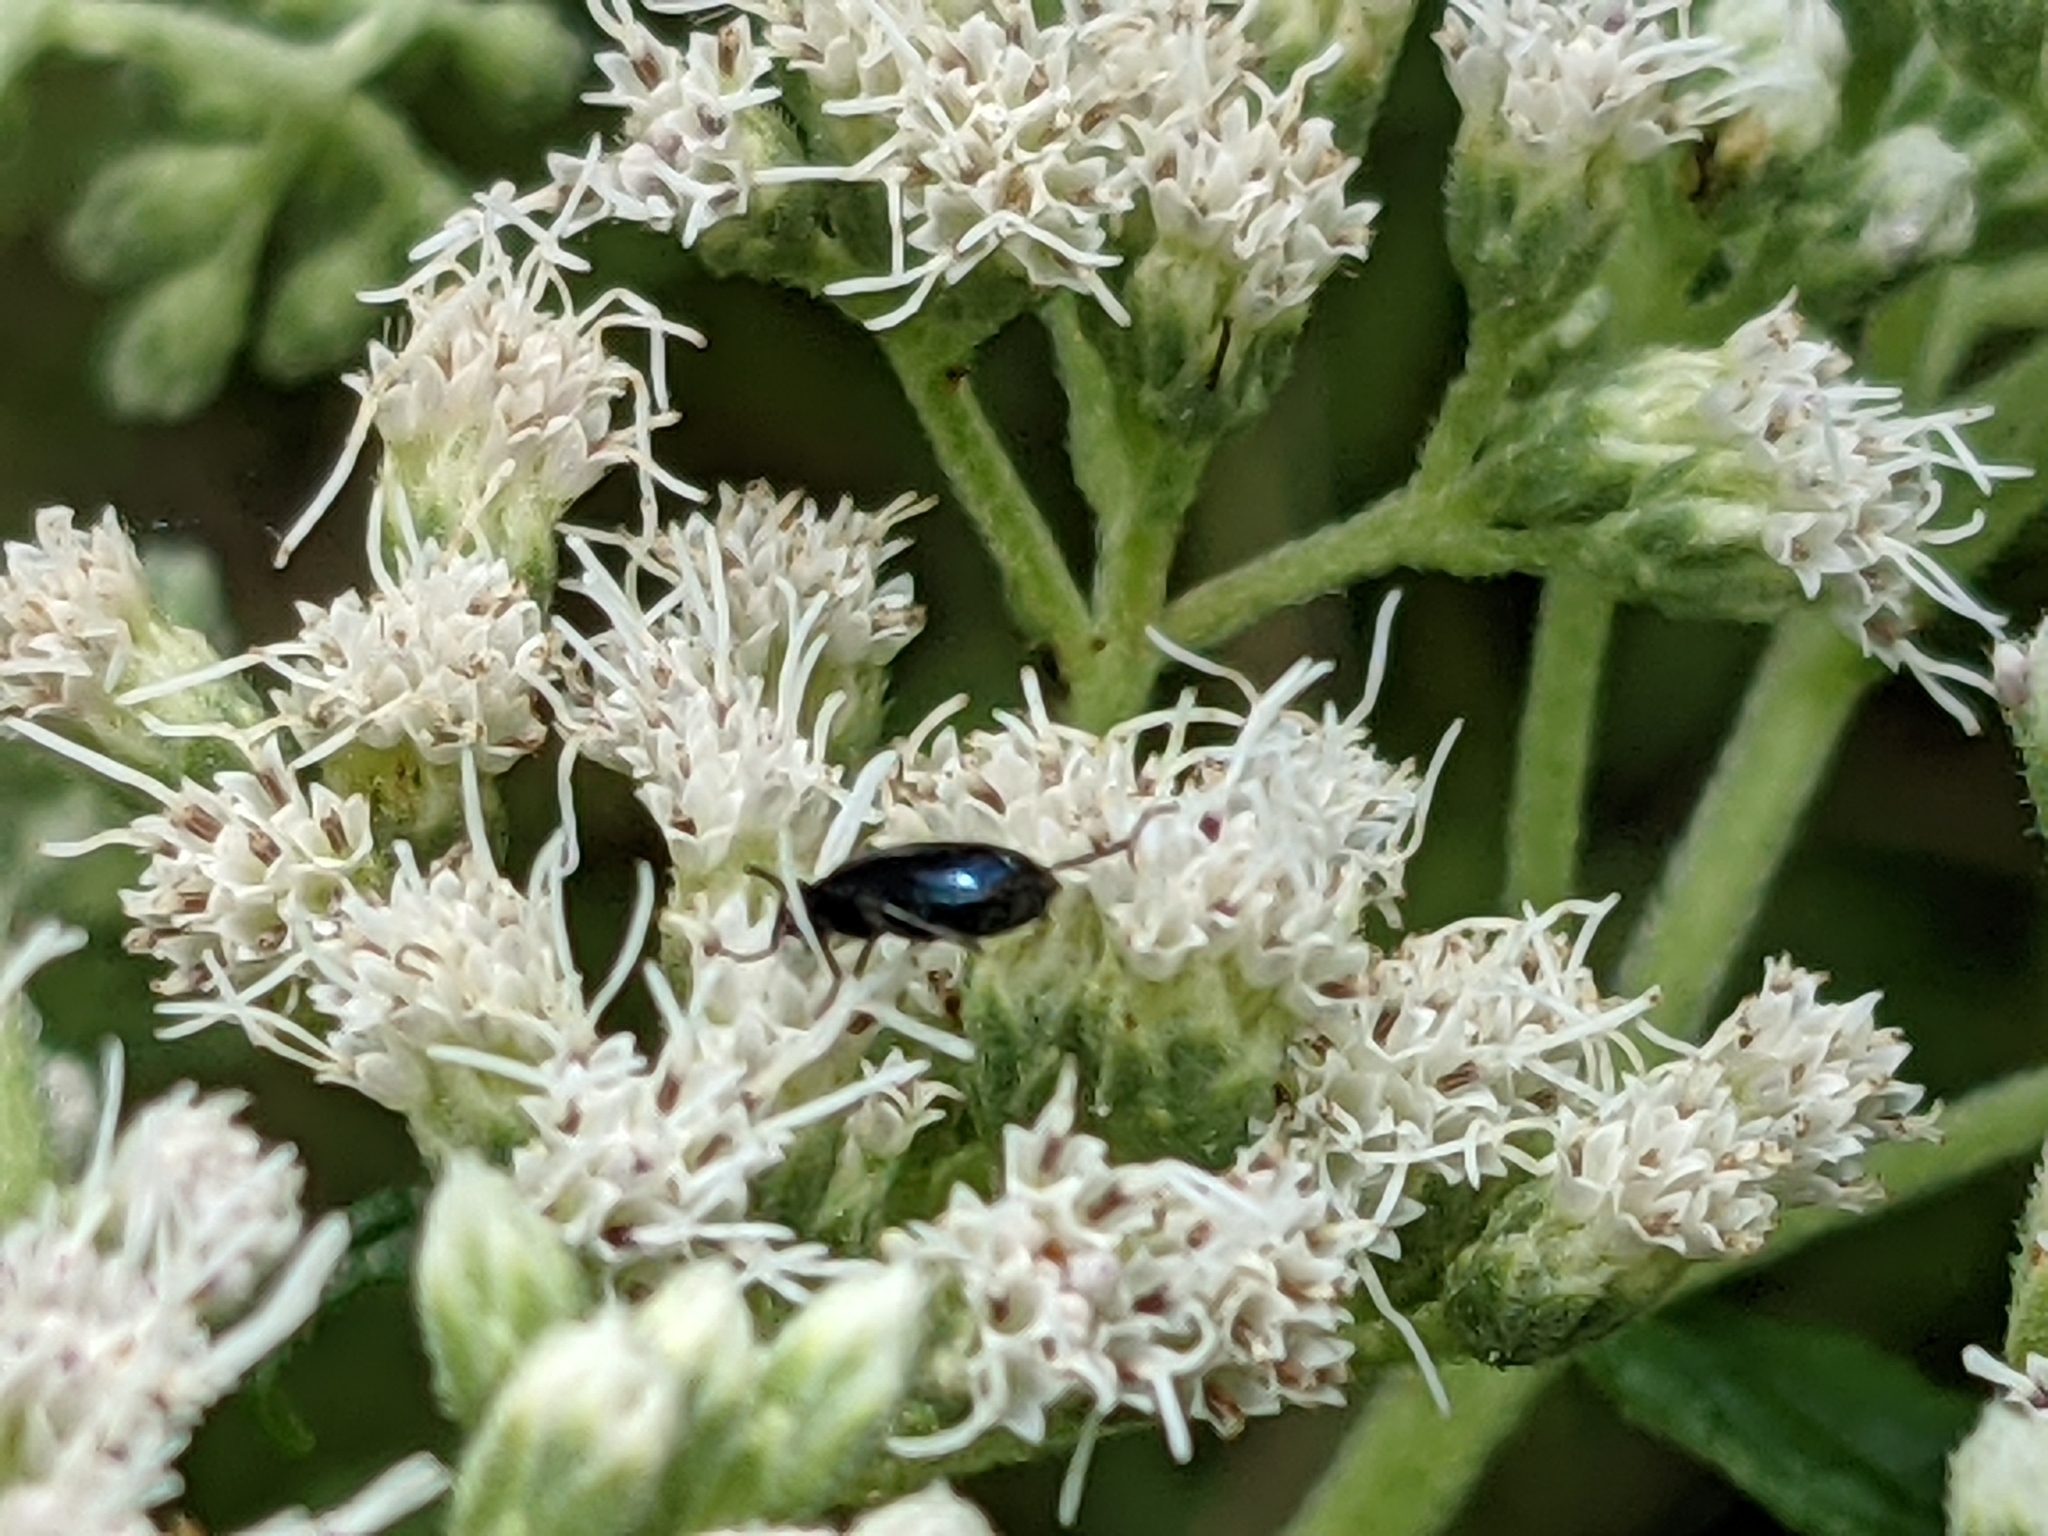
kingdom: Animalia
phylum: Arthropoda
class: Insecta
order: Coleoptera
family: Carabidae
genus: Lebia
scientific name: Lebia viridis
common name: Flower lebia beetle
